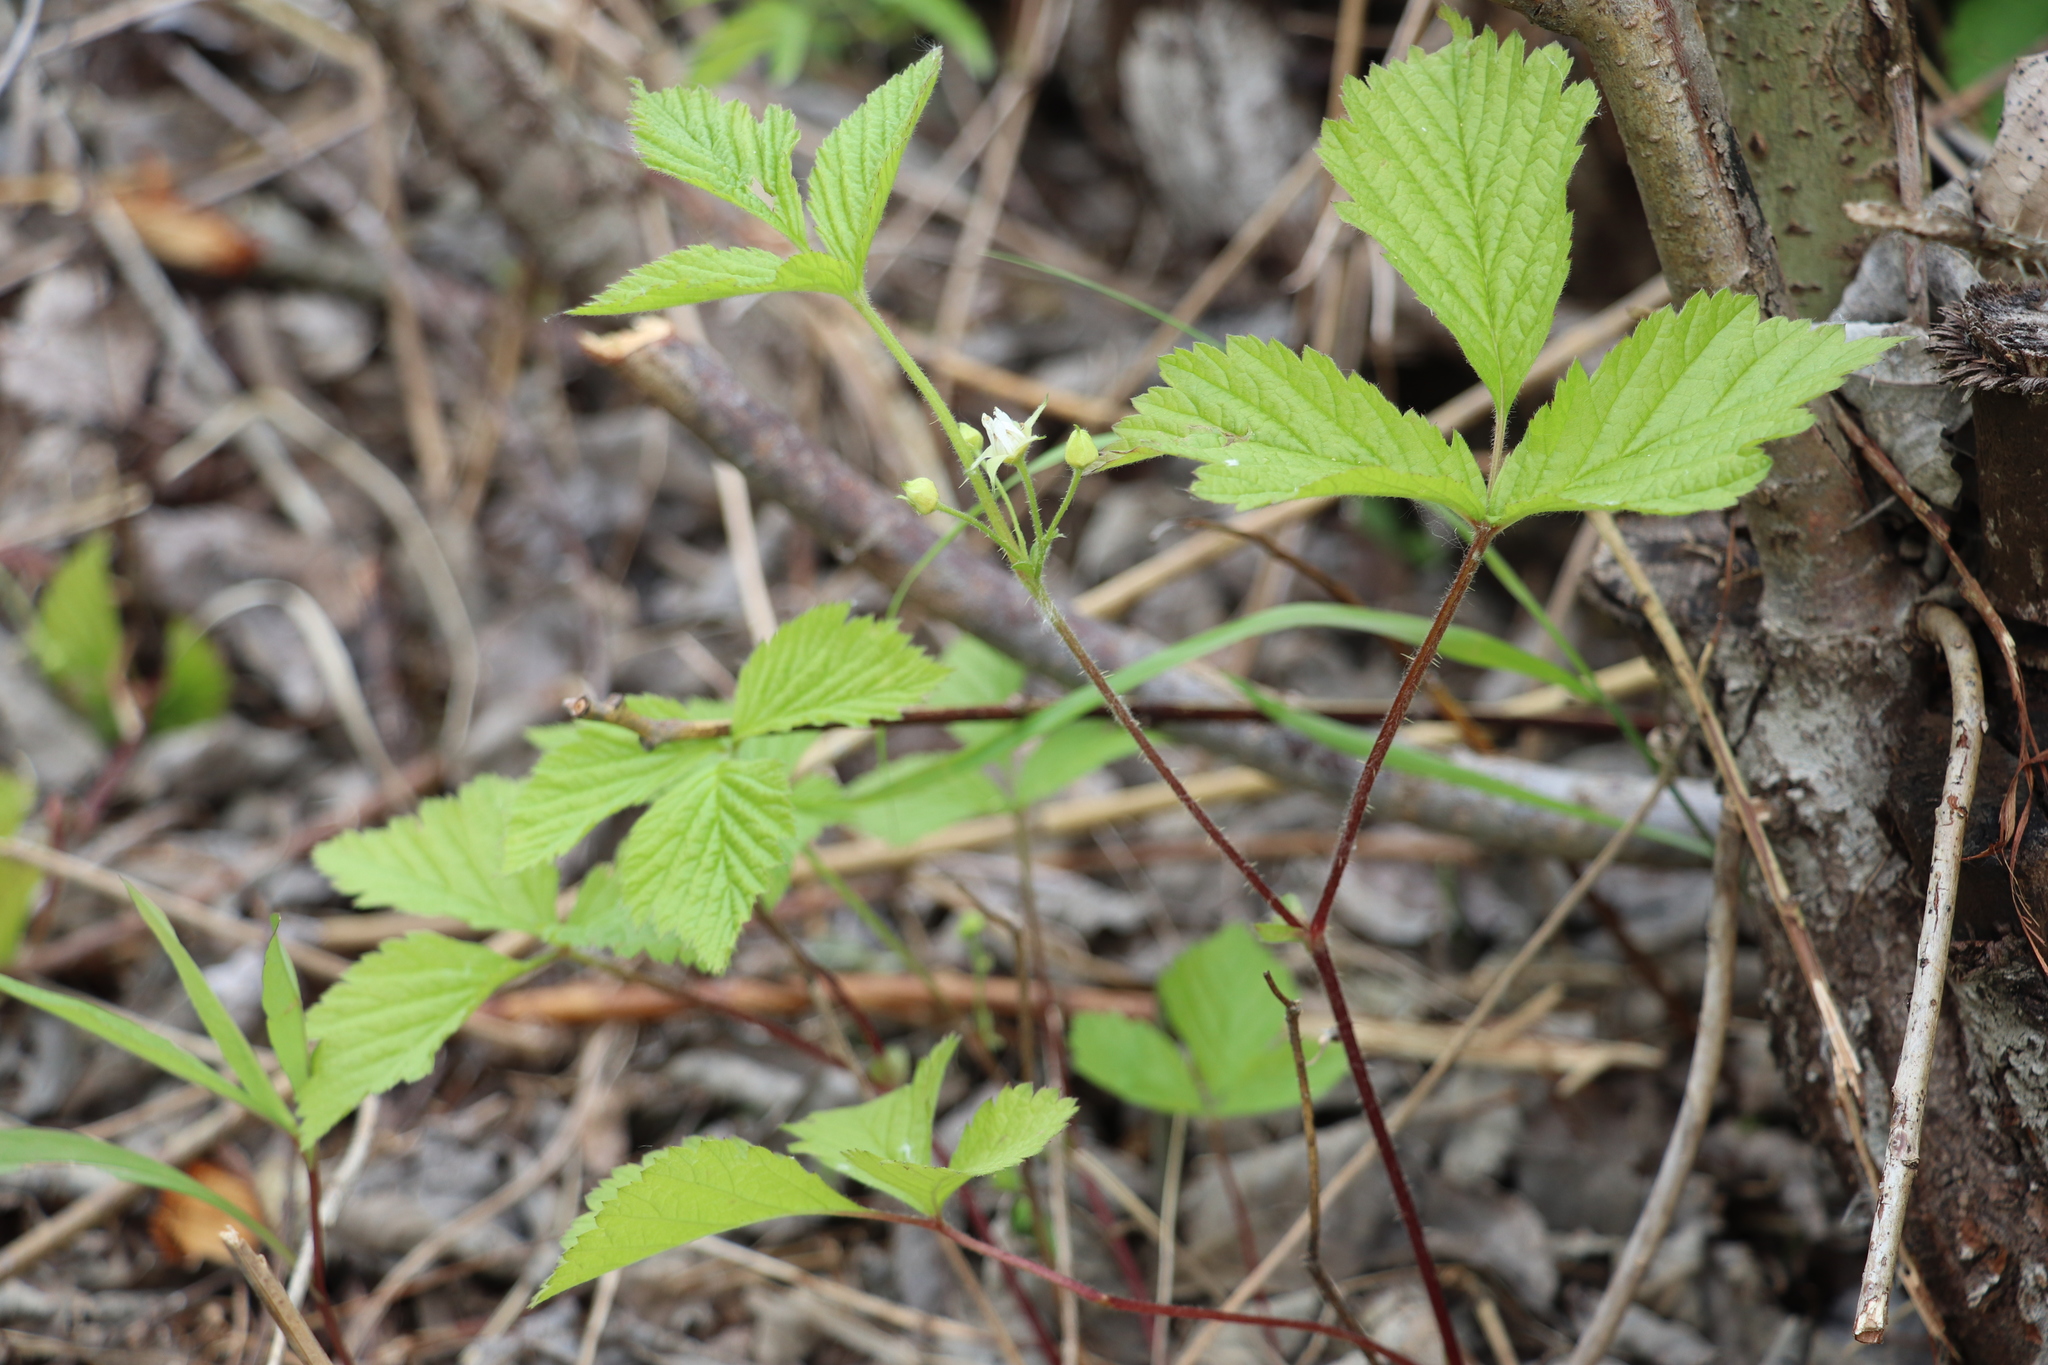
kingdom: Plantae
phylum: Tracheophyta
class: Magnoliopsida
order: Rosales
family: Rosaceae
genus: Rubus
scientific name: Rubus saxatilis
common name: Stone bramble
